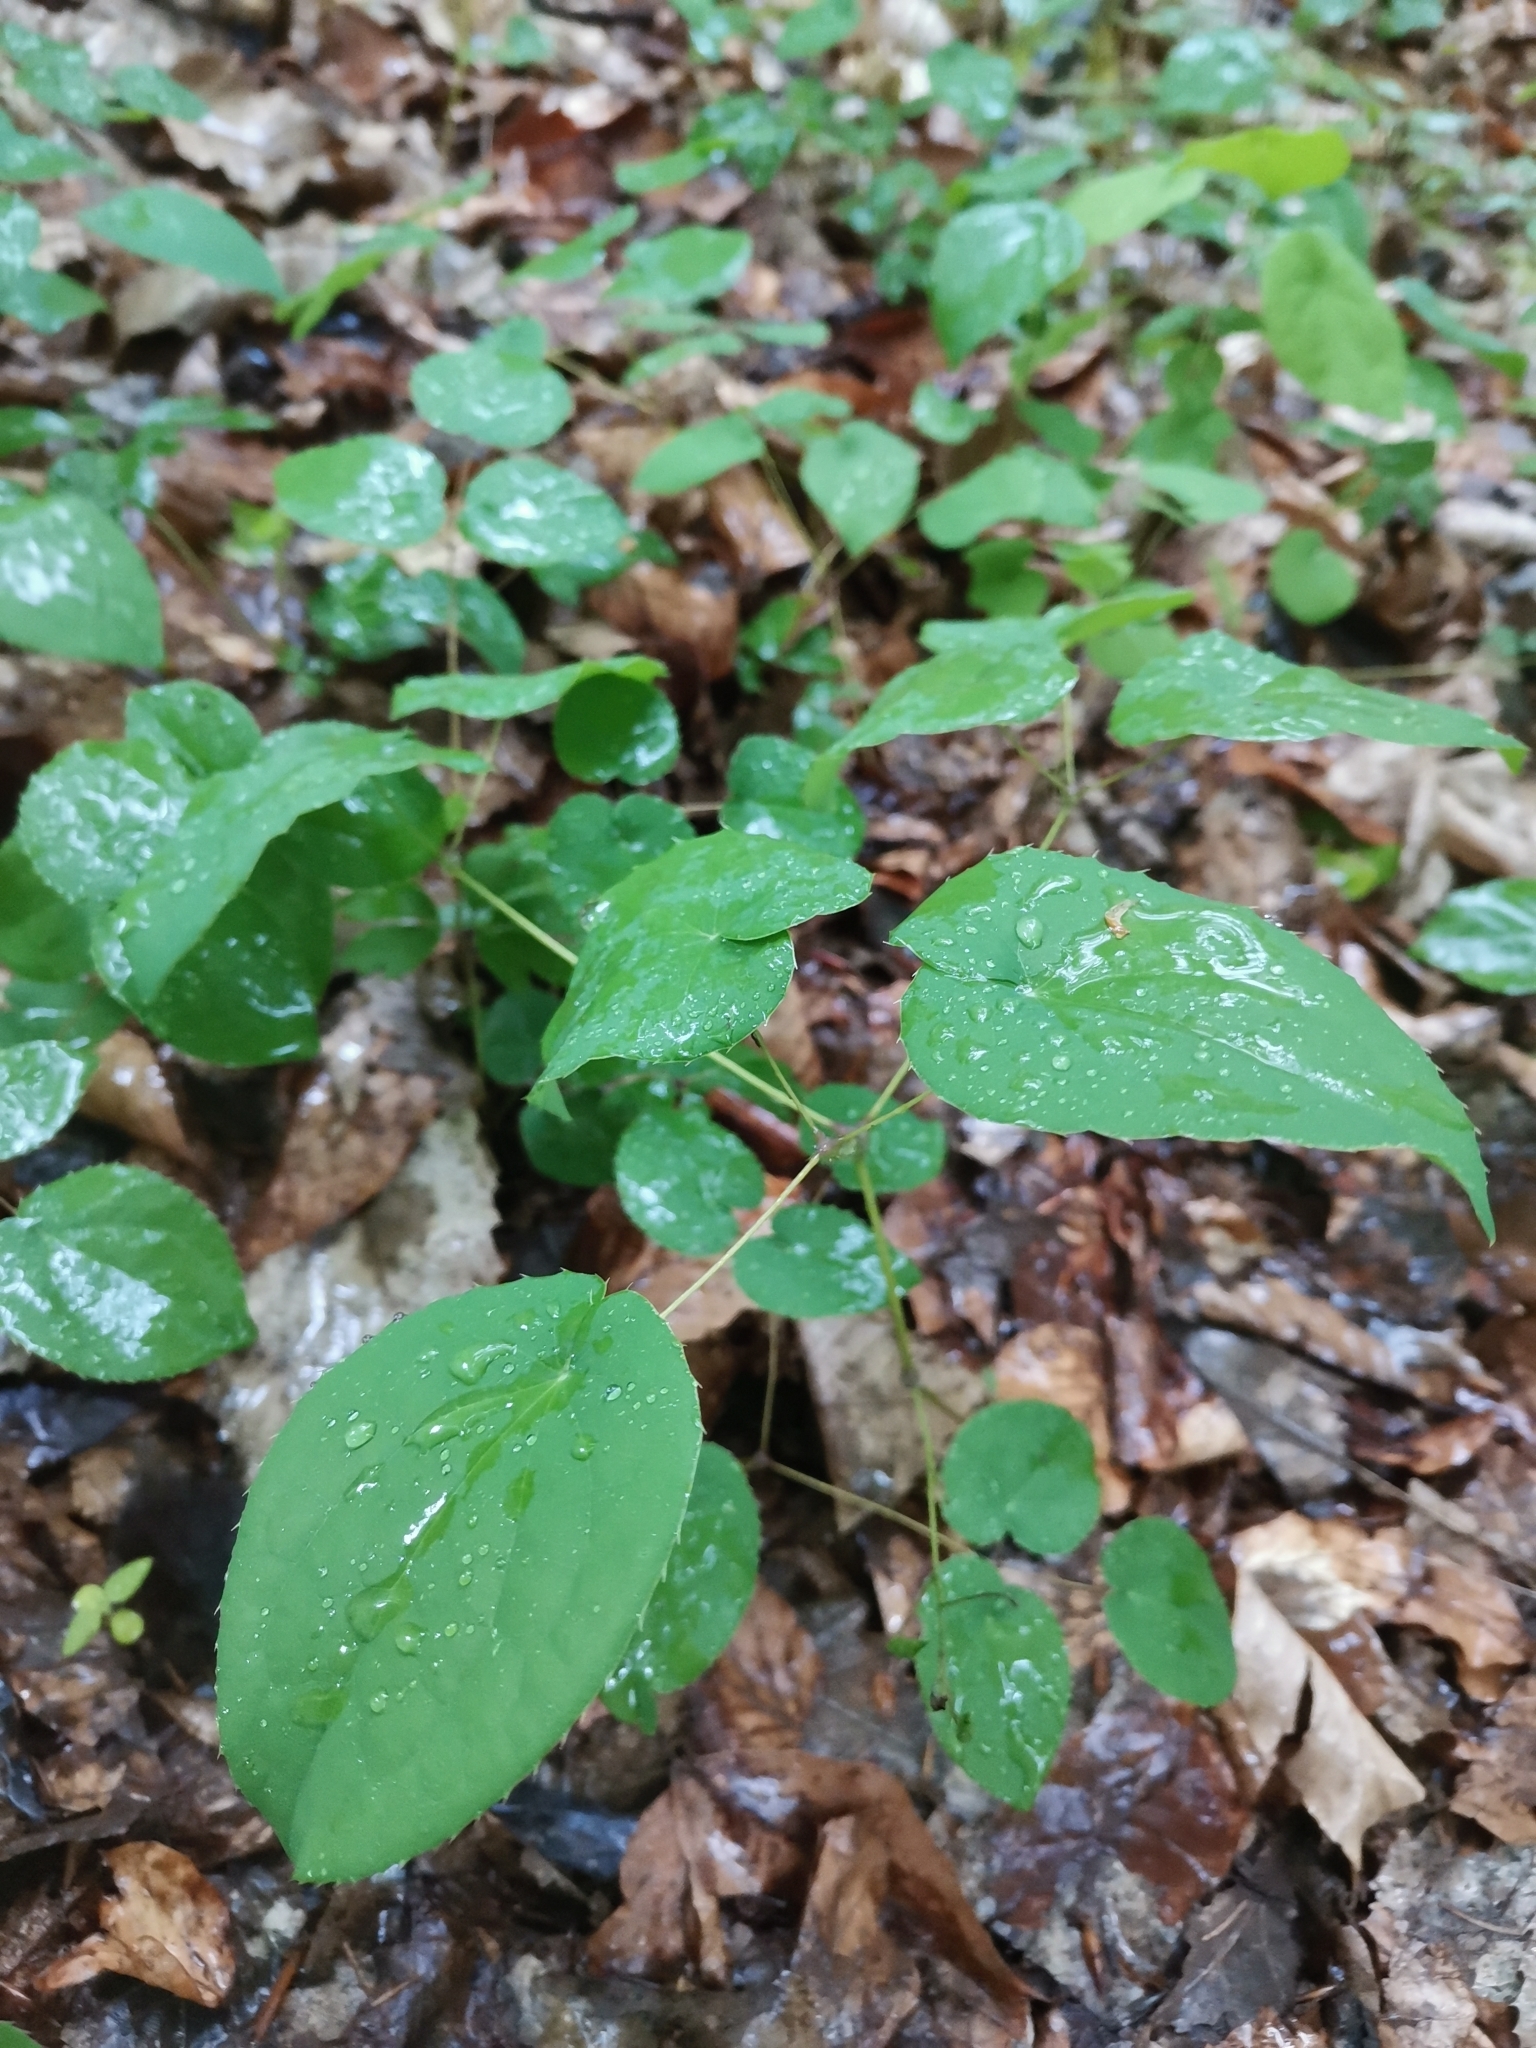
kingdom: Plantae
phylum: Tracheophyta
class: Magnoliopsida
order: Ranunculales
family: Berberidaceae
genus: Epimedium
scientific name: Epimedium alpinum
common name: Barrenwort
